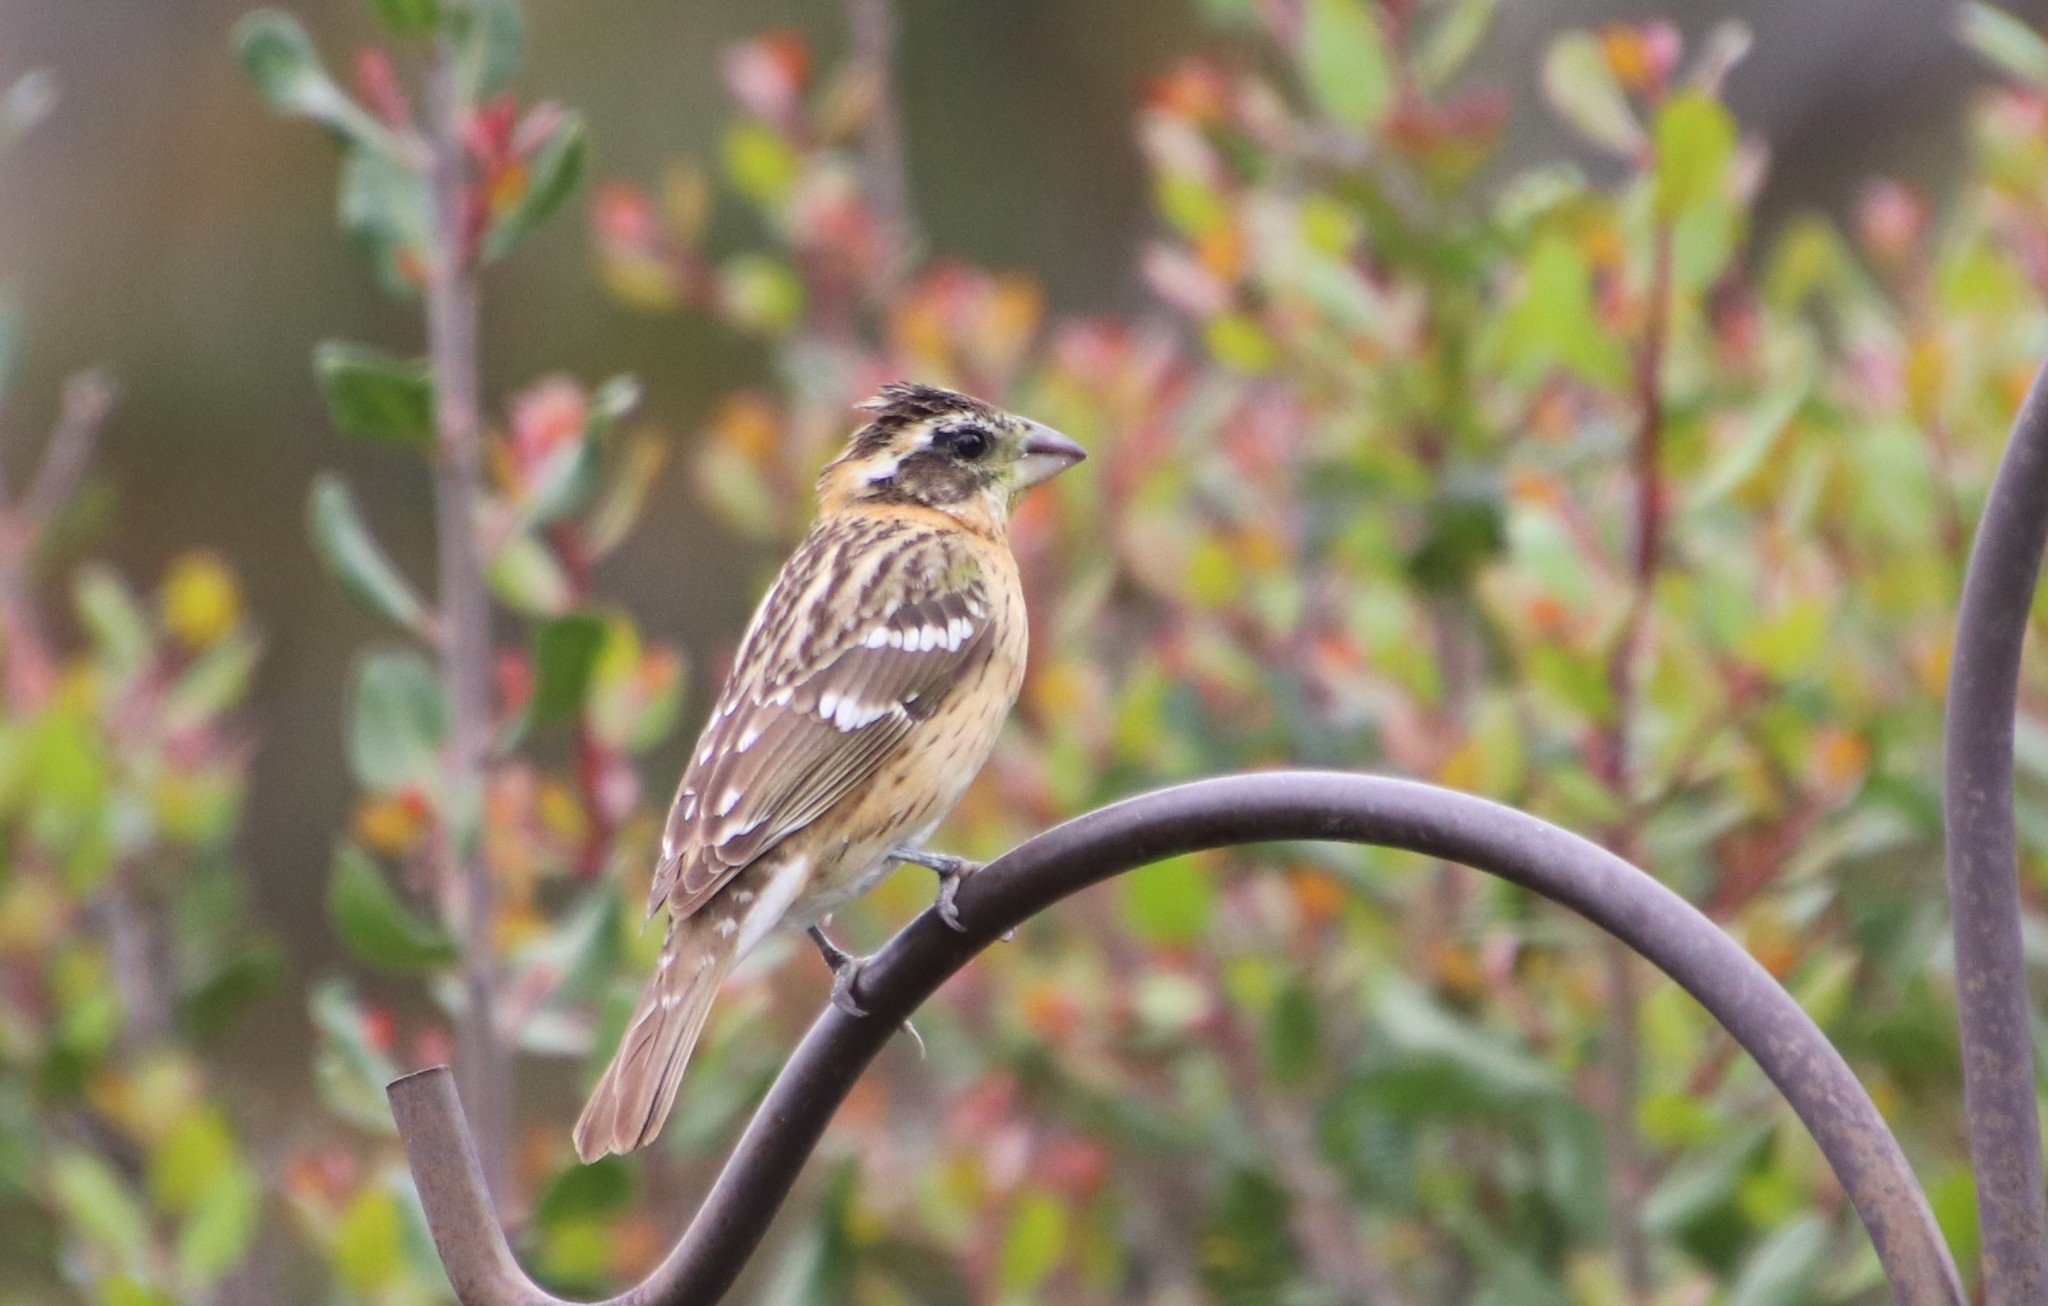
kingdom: Animalia
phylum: Chordata
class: Aves
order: Passeriformes
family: Cardinalidae
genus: Pheucticus
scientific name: Pheucticus melanocephalus
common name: Black-headed grosbeak
